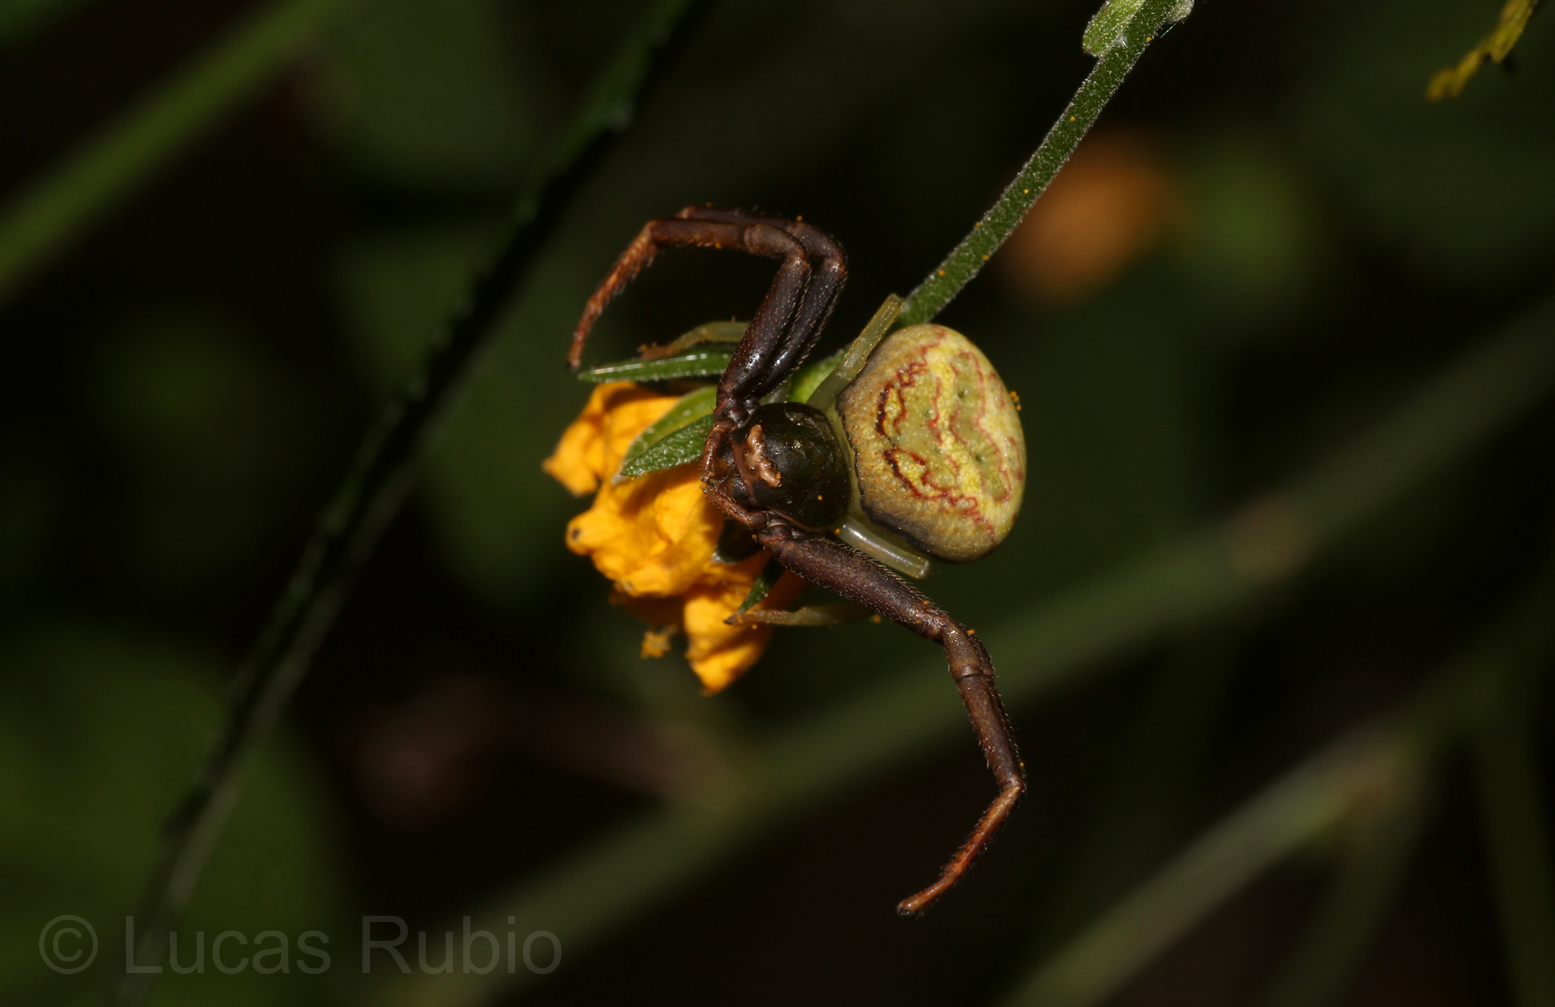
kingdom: Animalia
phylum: Arthropoda
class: Arachnida
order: Araneae
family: Thomisidae
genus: Runcinioides
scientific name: Runcinioides litteratus
